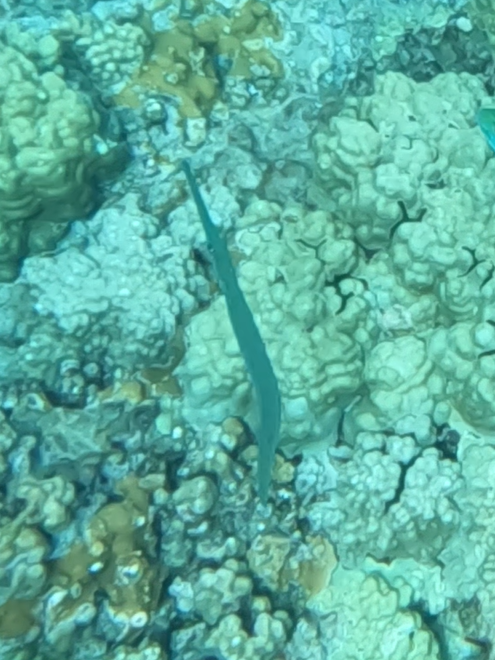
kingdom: Animalia
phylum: Chordata
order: Syngnathiformes
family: Fistulariidae
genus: Fistularia
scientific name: Fistularia commersonii
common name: Bluespotted cornetfish
